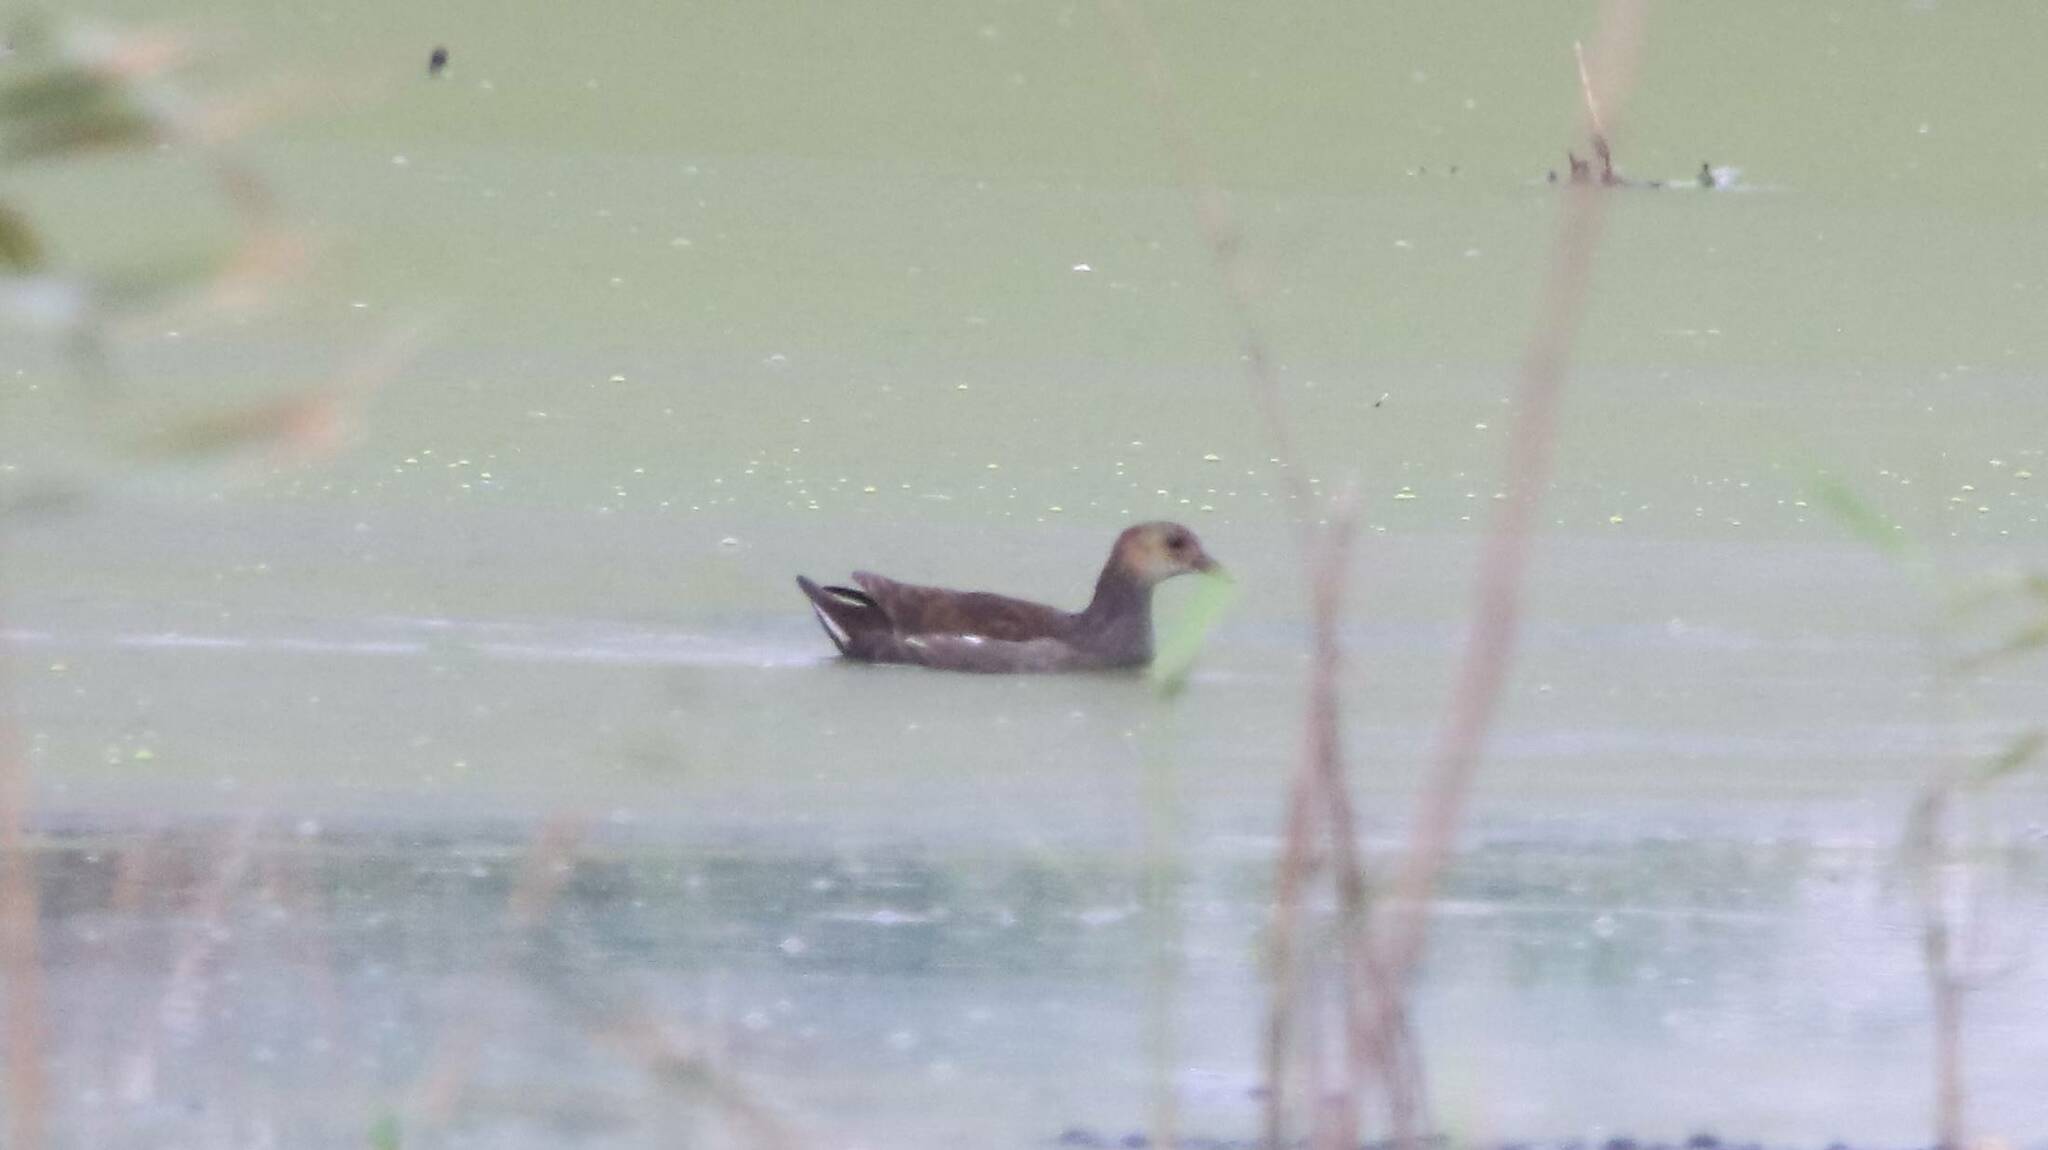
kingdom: Animalia
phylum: Chordata
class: Aves
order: Gruiformes
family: Rallidae
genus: Gallinula
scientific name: Gallinula chloropus
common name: Common moorhen
